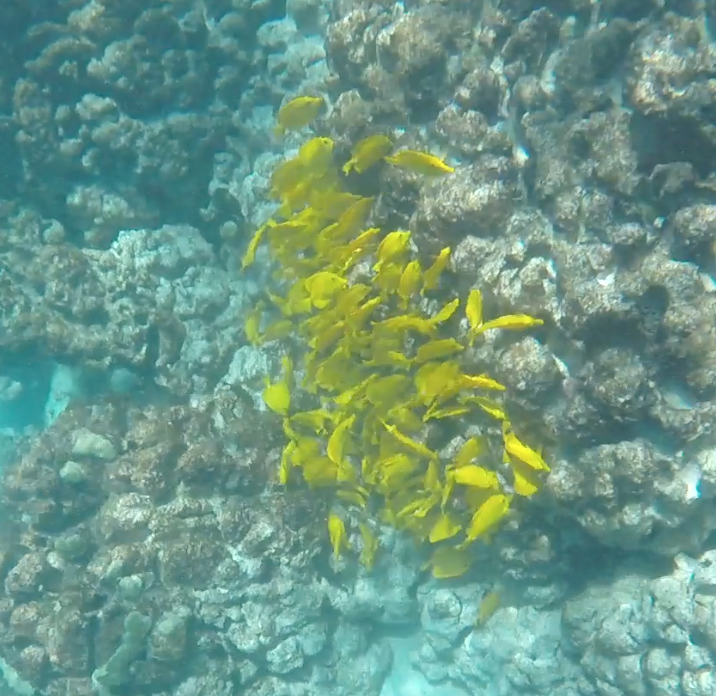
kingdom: Animalia
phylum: Chordata
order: Perciformes
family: Acanthuridae
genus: Zebrasoma
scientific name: Zebrasoma flavescens
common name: Yellow tang
